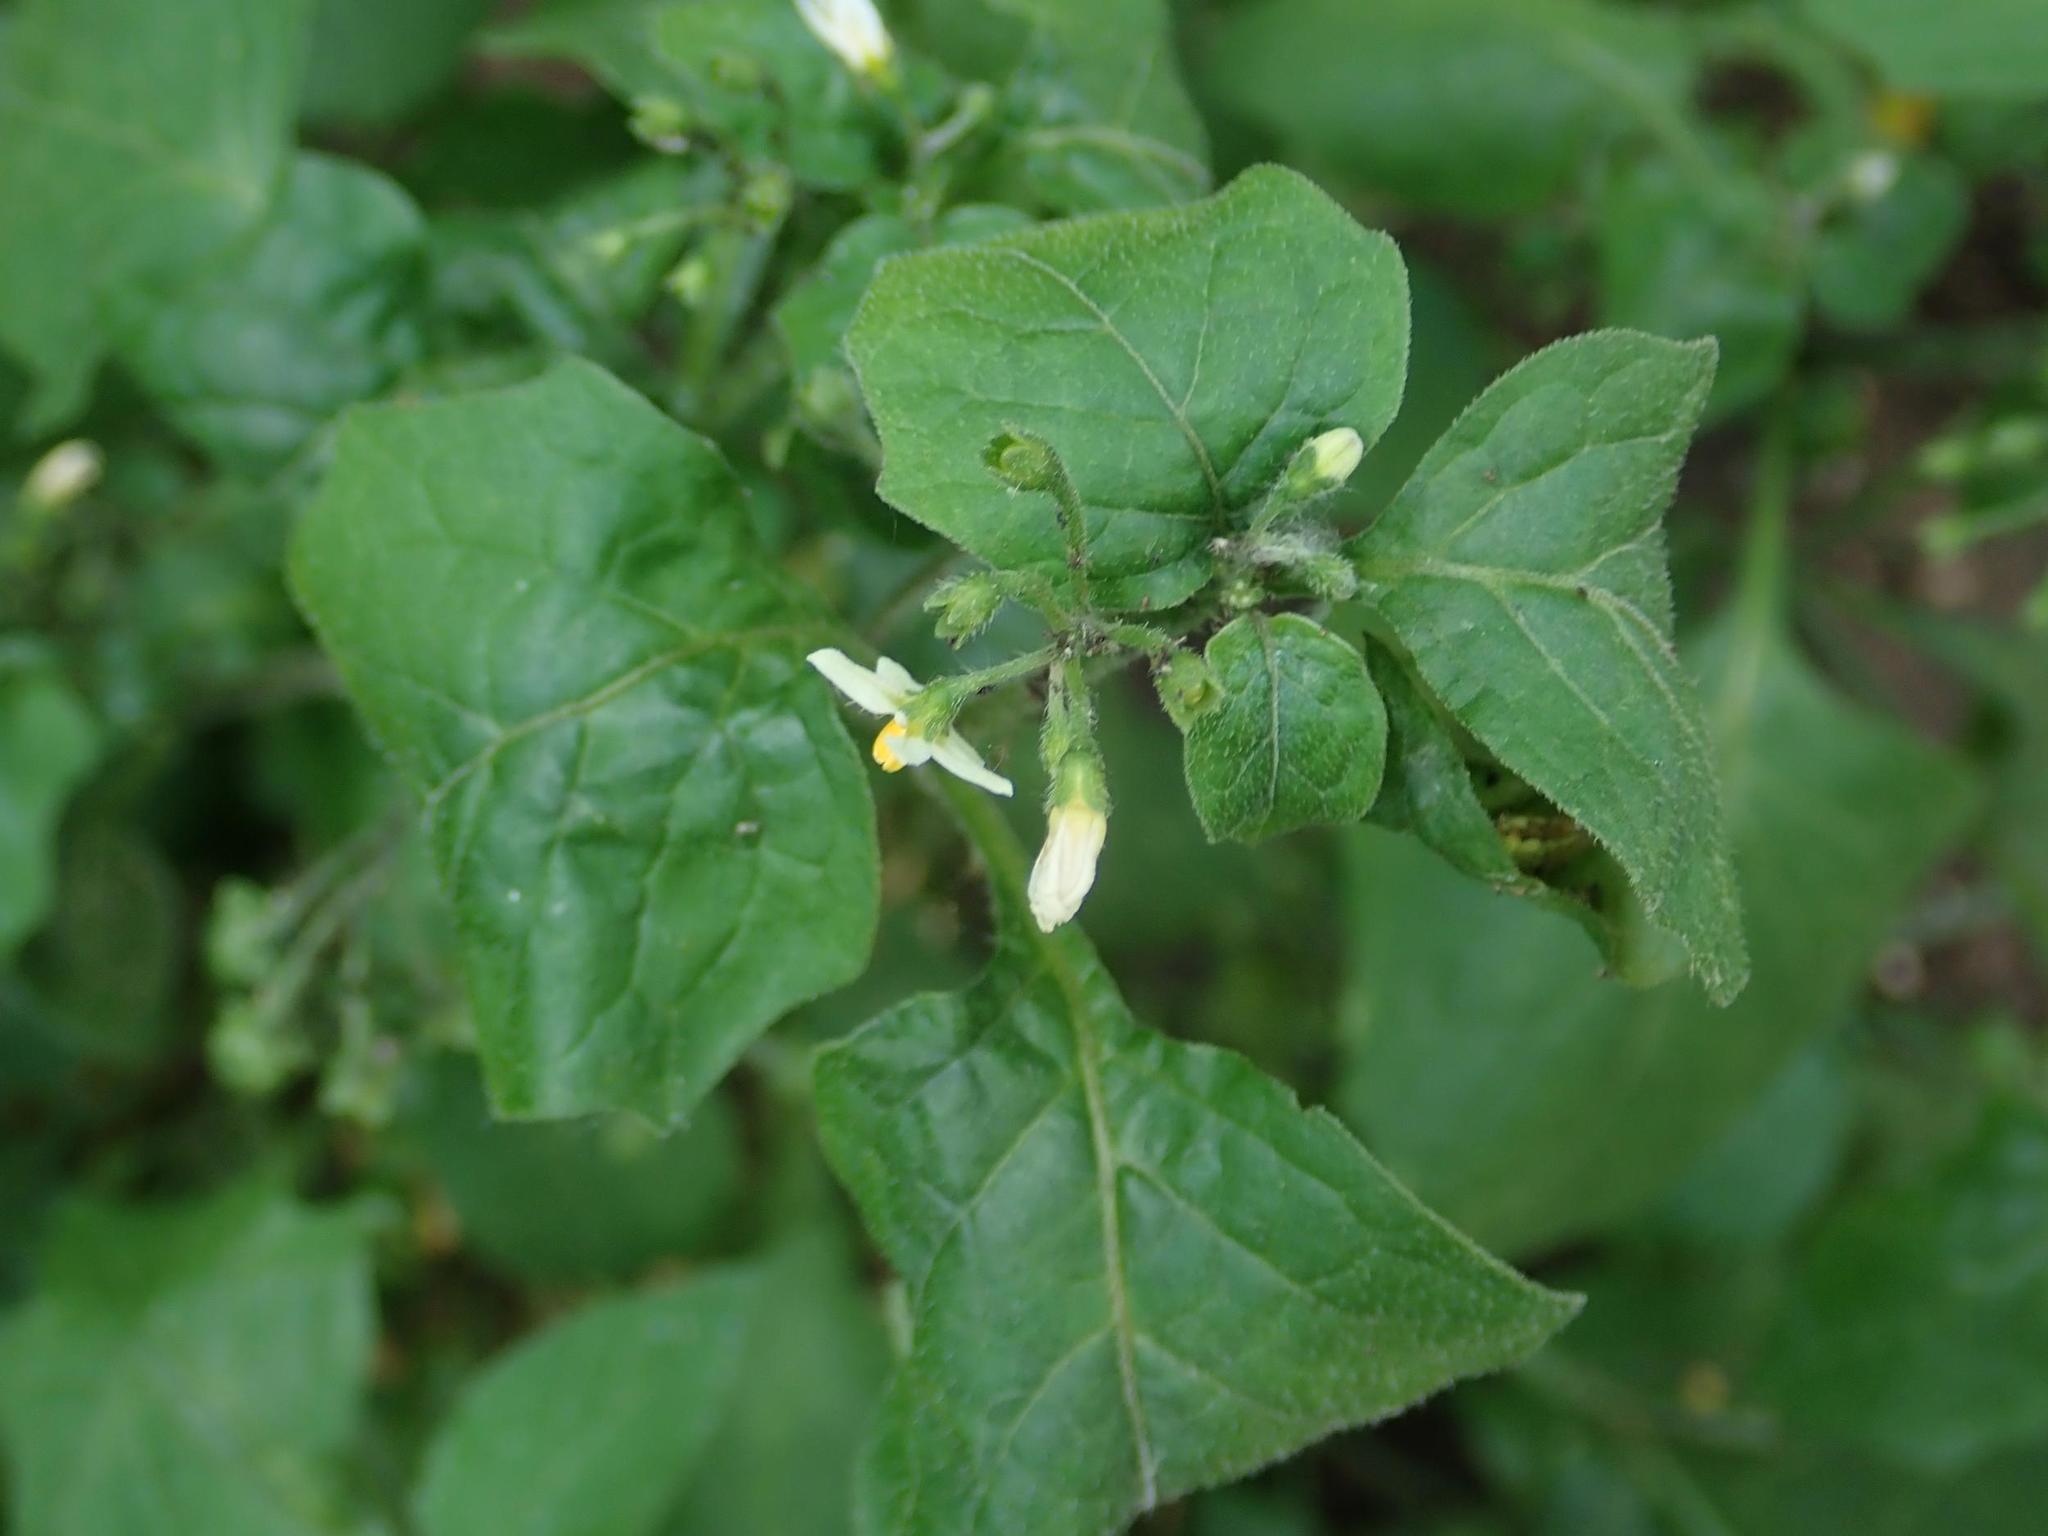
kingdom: Plantae
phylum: Tracheophyta
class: Magnoliopsida
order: Solanales
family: Solanaceae
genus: Solanum
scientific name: Solanum nigrum
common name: Black nightshade
